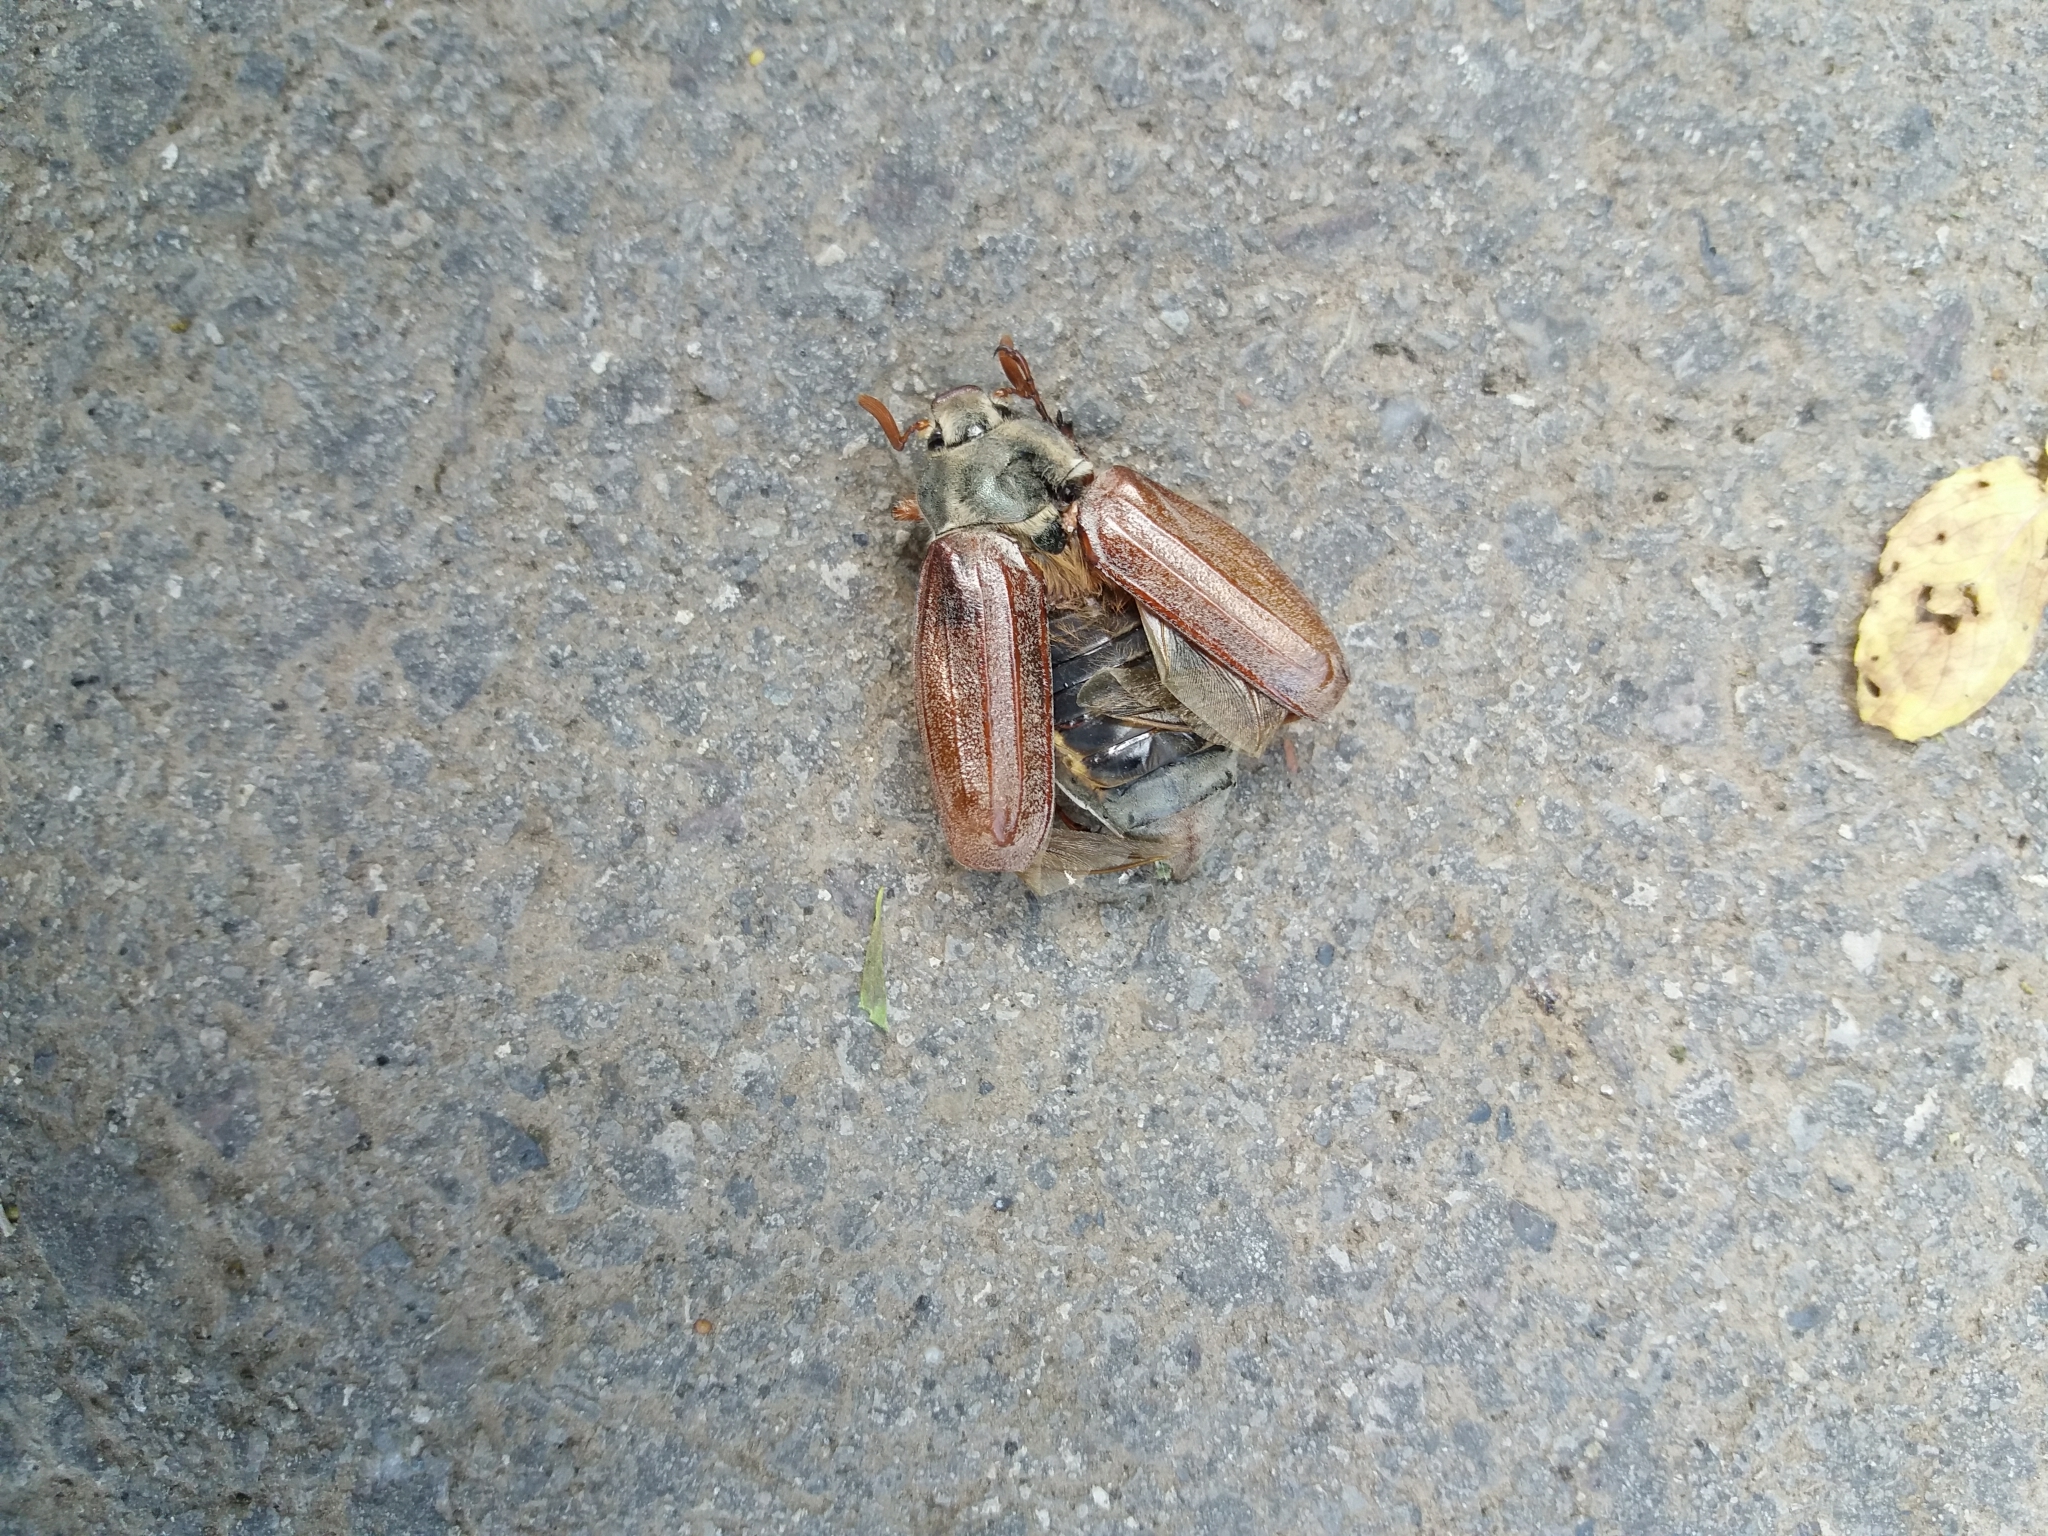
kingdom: Animalia
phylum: Arthropoda
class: Insecta
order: Coleoptera
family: Scarabaeidae
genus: Melolontha
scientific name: Melolontha melolontha
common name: Cockchafer maybeetle
